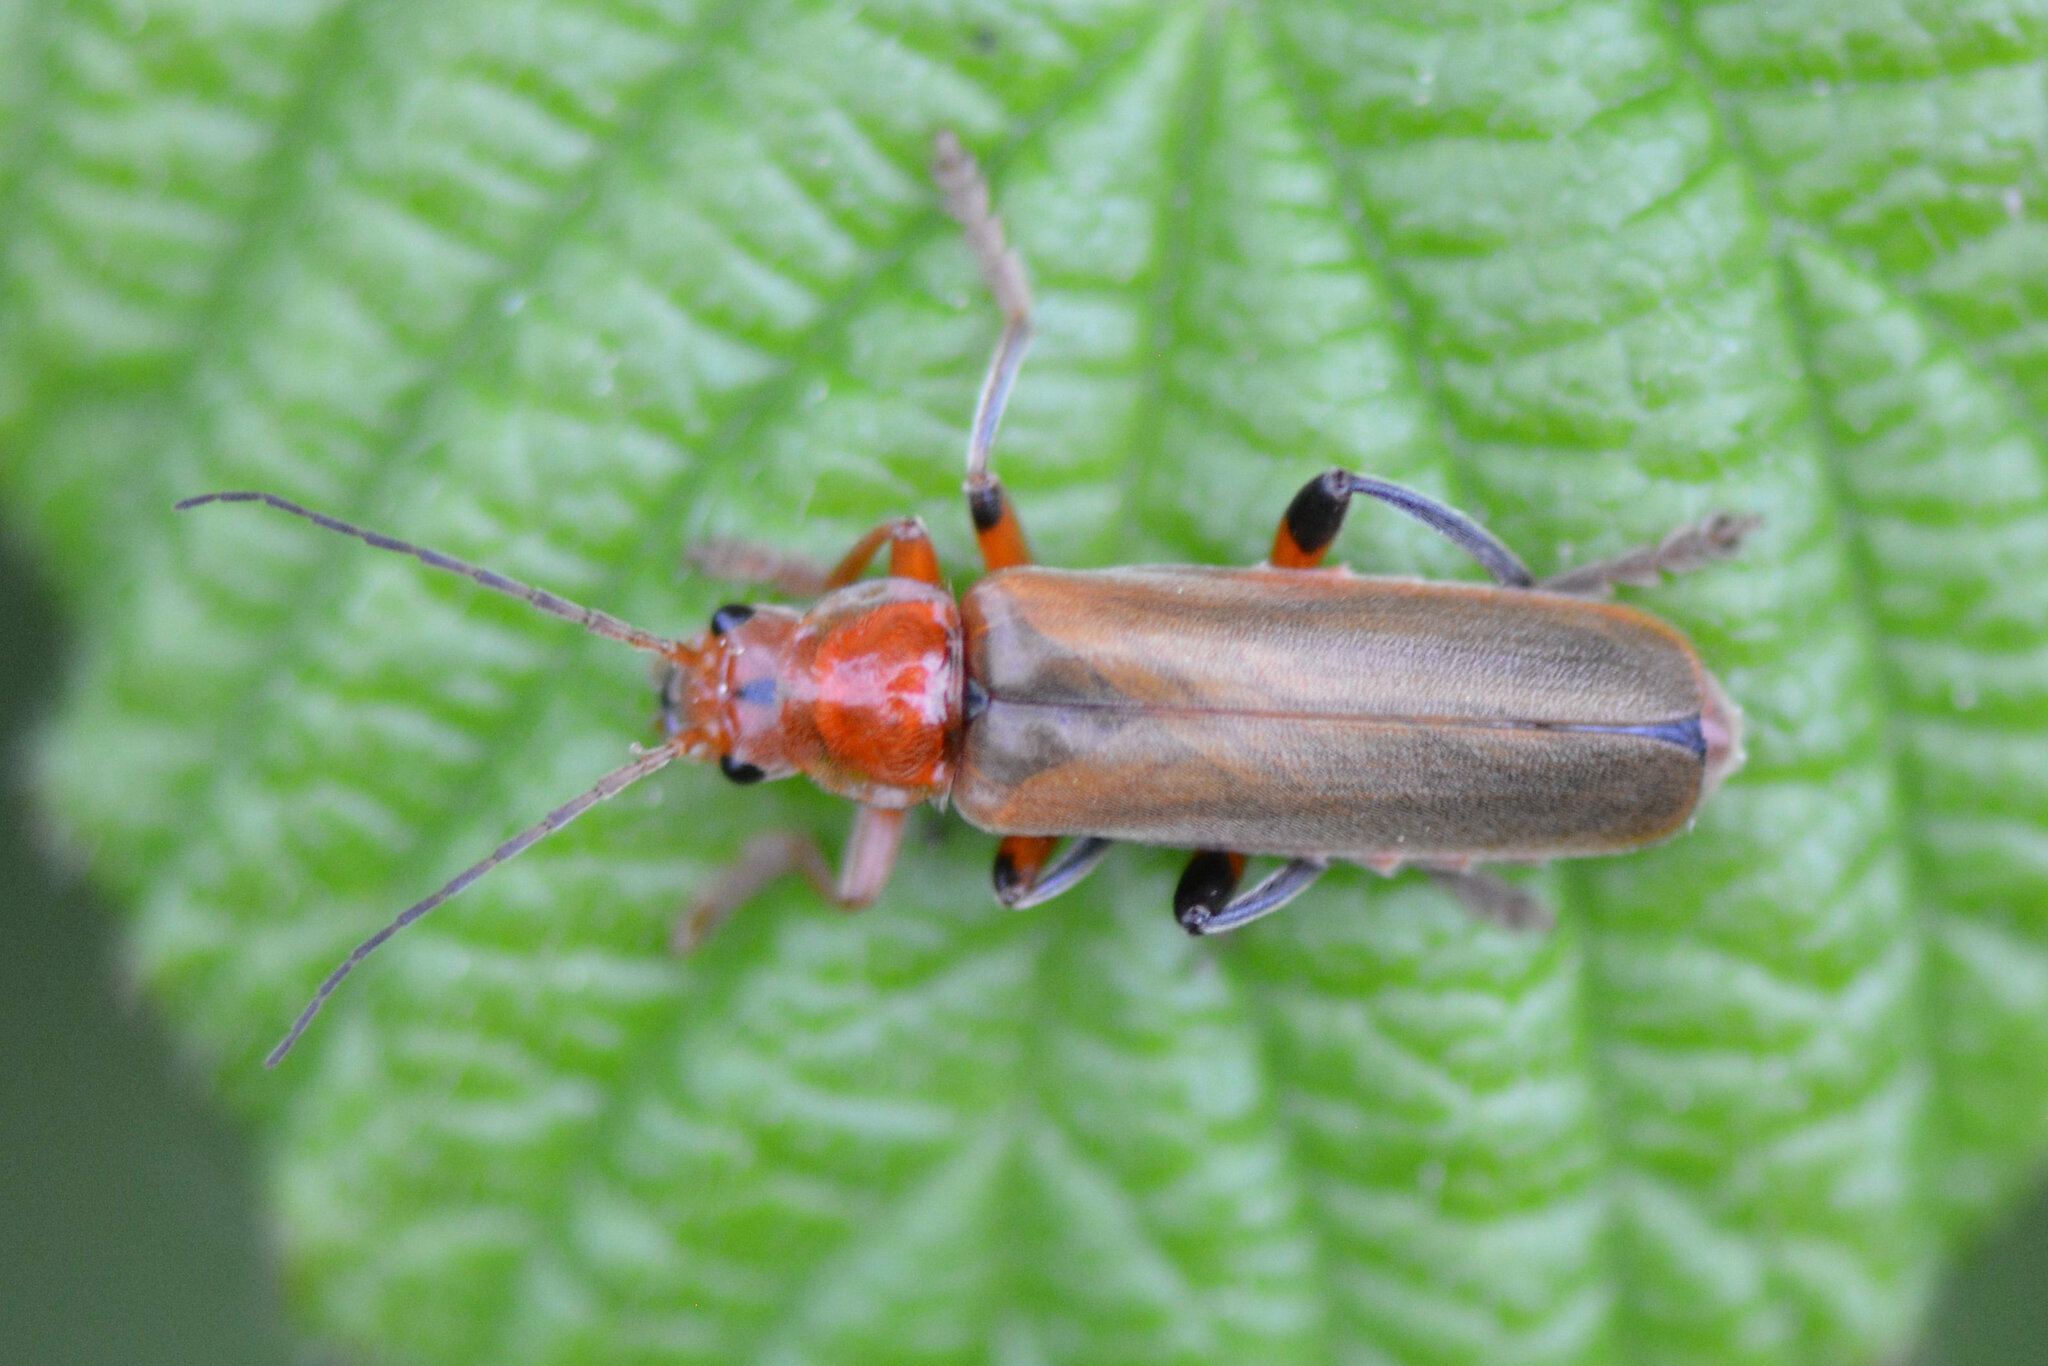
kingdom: Animalia
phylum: Arthropoda
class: Insecta
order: Coleoptera
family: Cantharidae
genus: Cantharis
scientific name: Cantharis livida
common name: Livid soldier beetle
